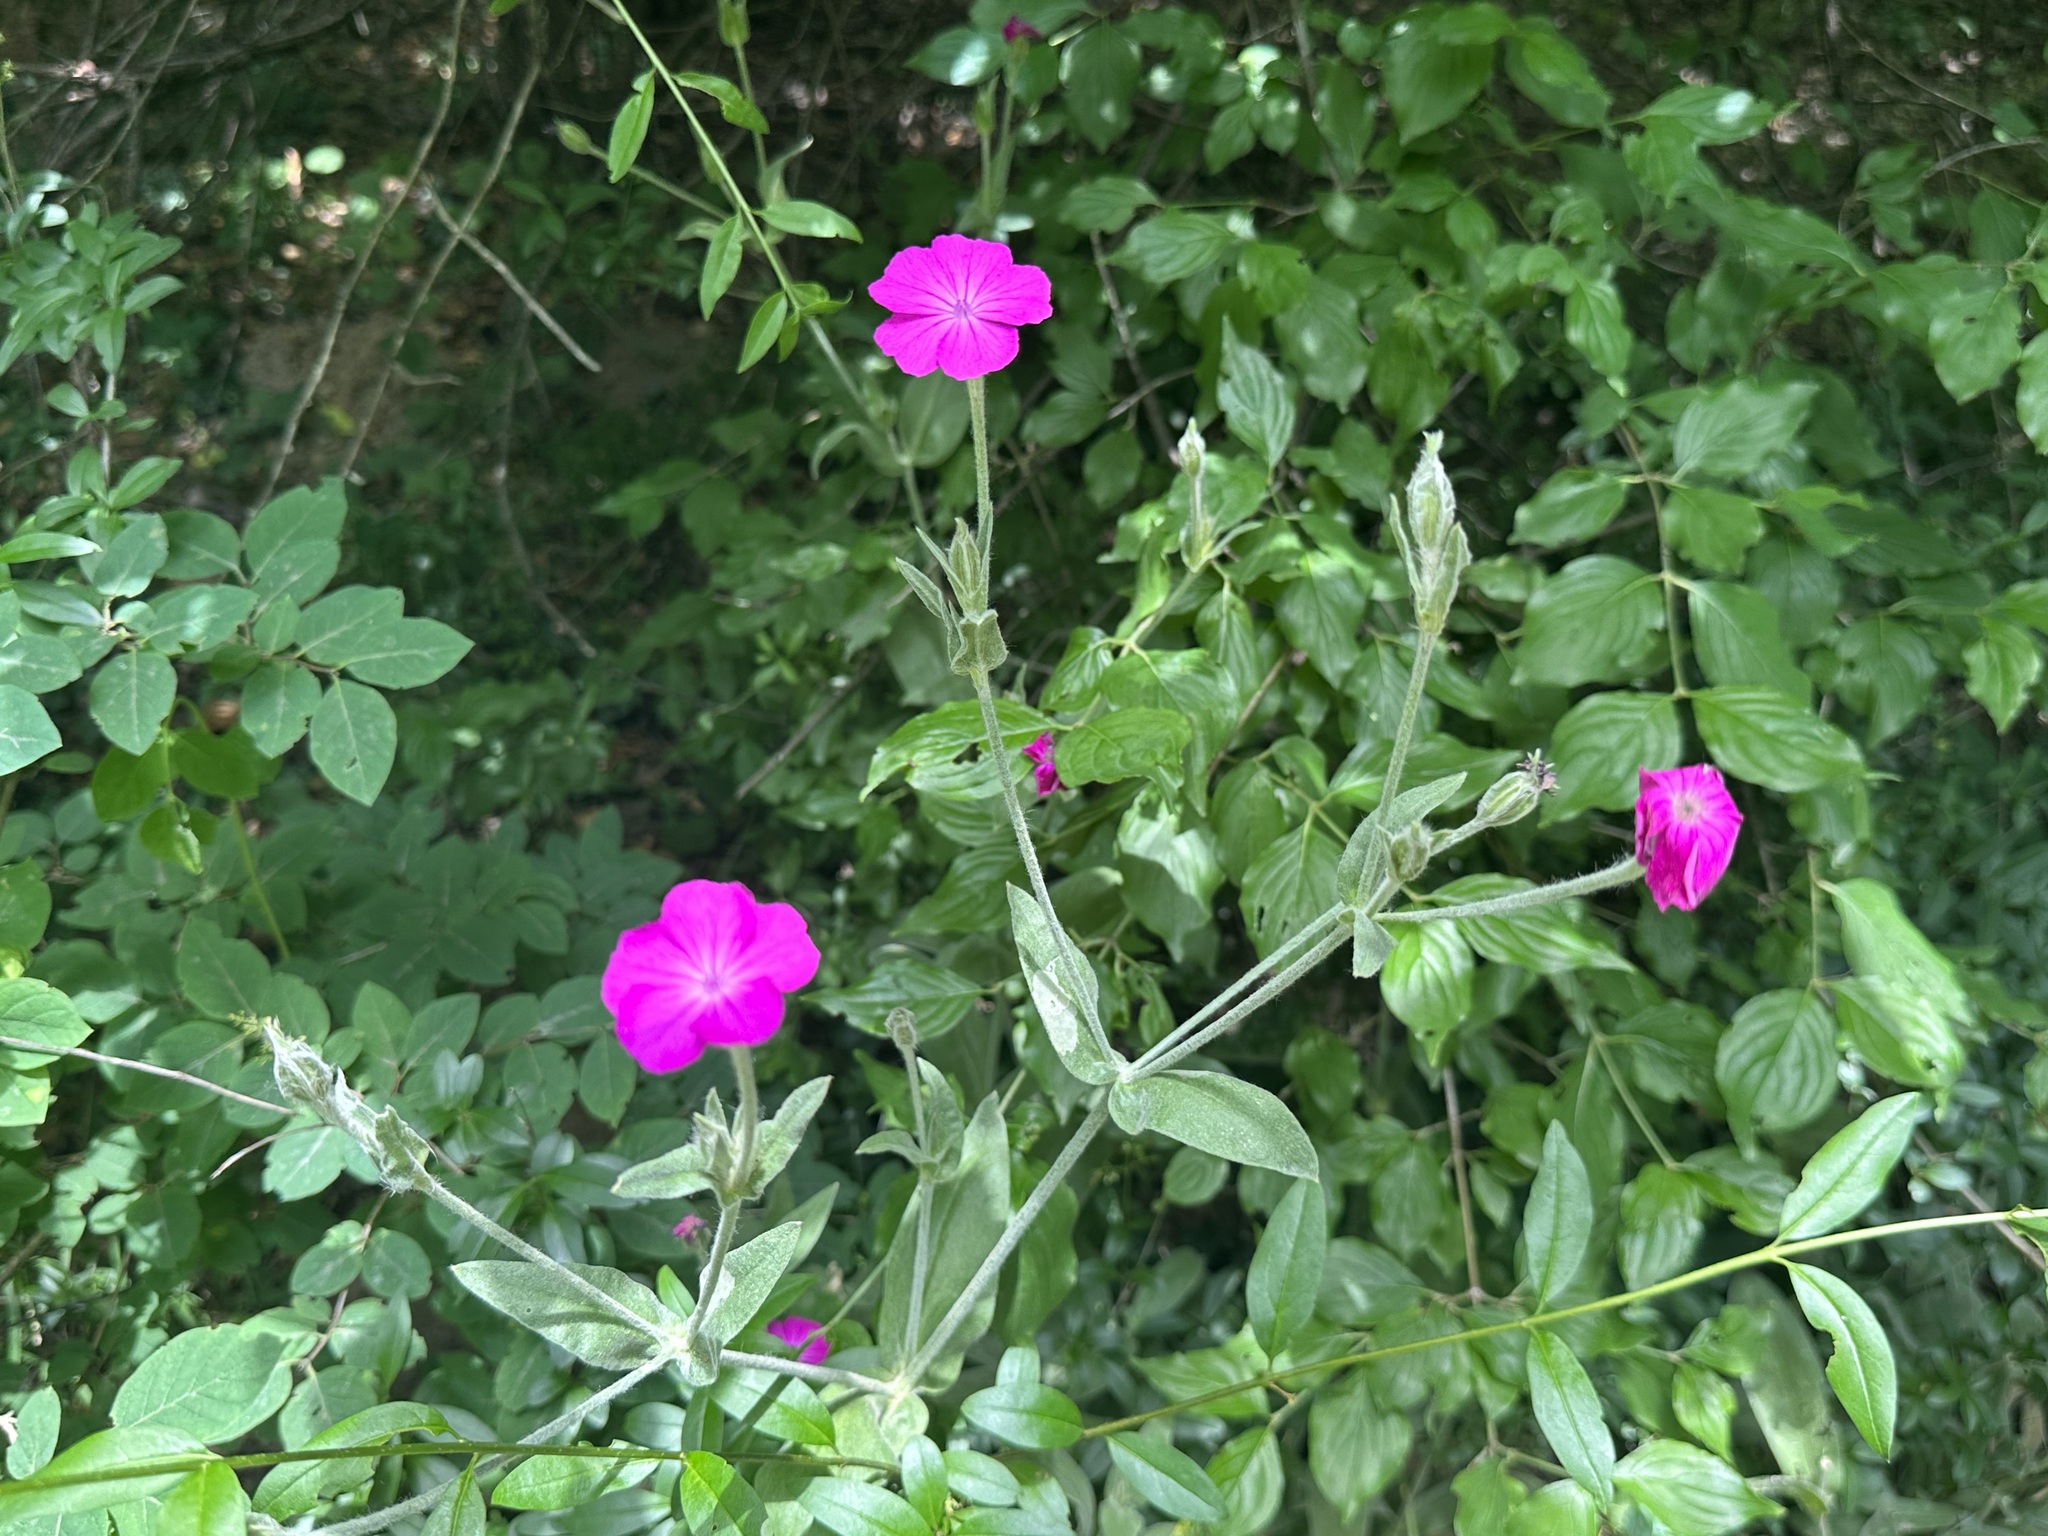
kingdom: Plantae
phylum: Tracheophyta
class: Magnoliopsida
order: Caryophyllales
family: Caryophyllaceae
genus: Silene
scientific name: Silene coronaria
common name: Rose campion
